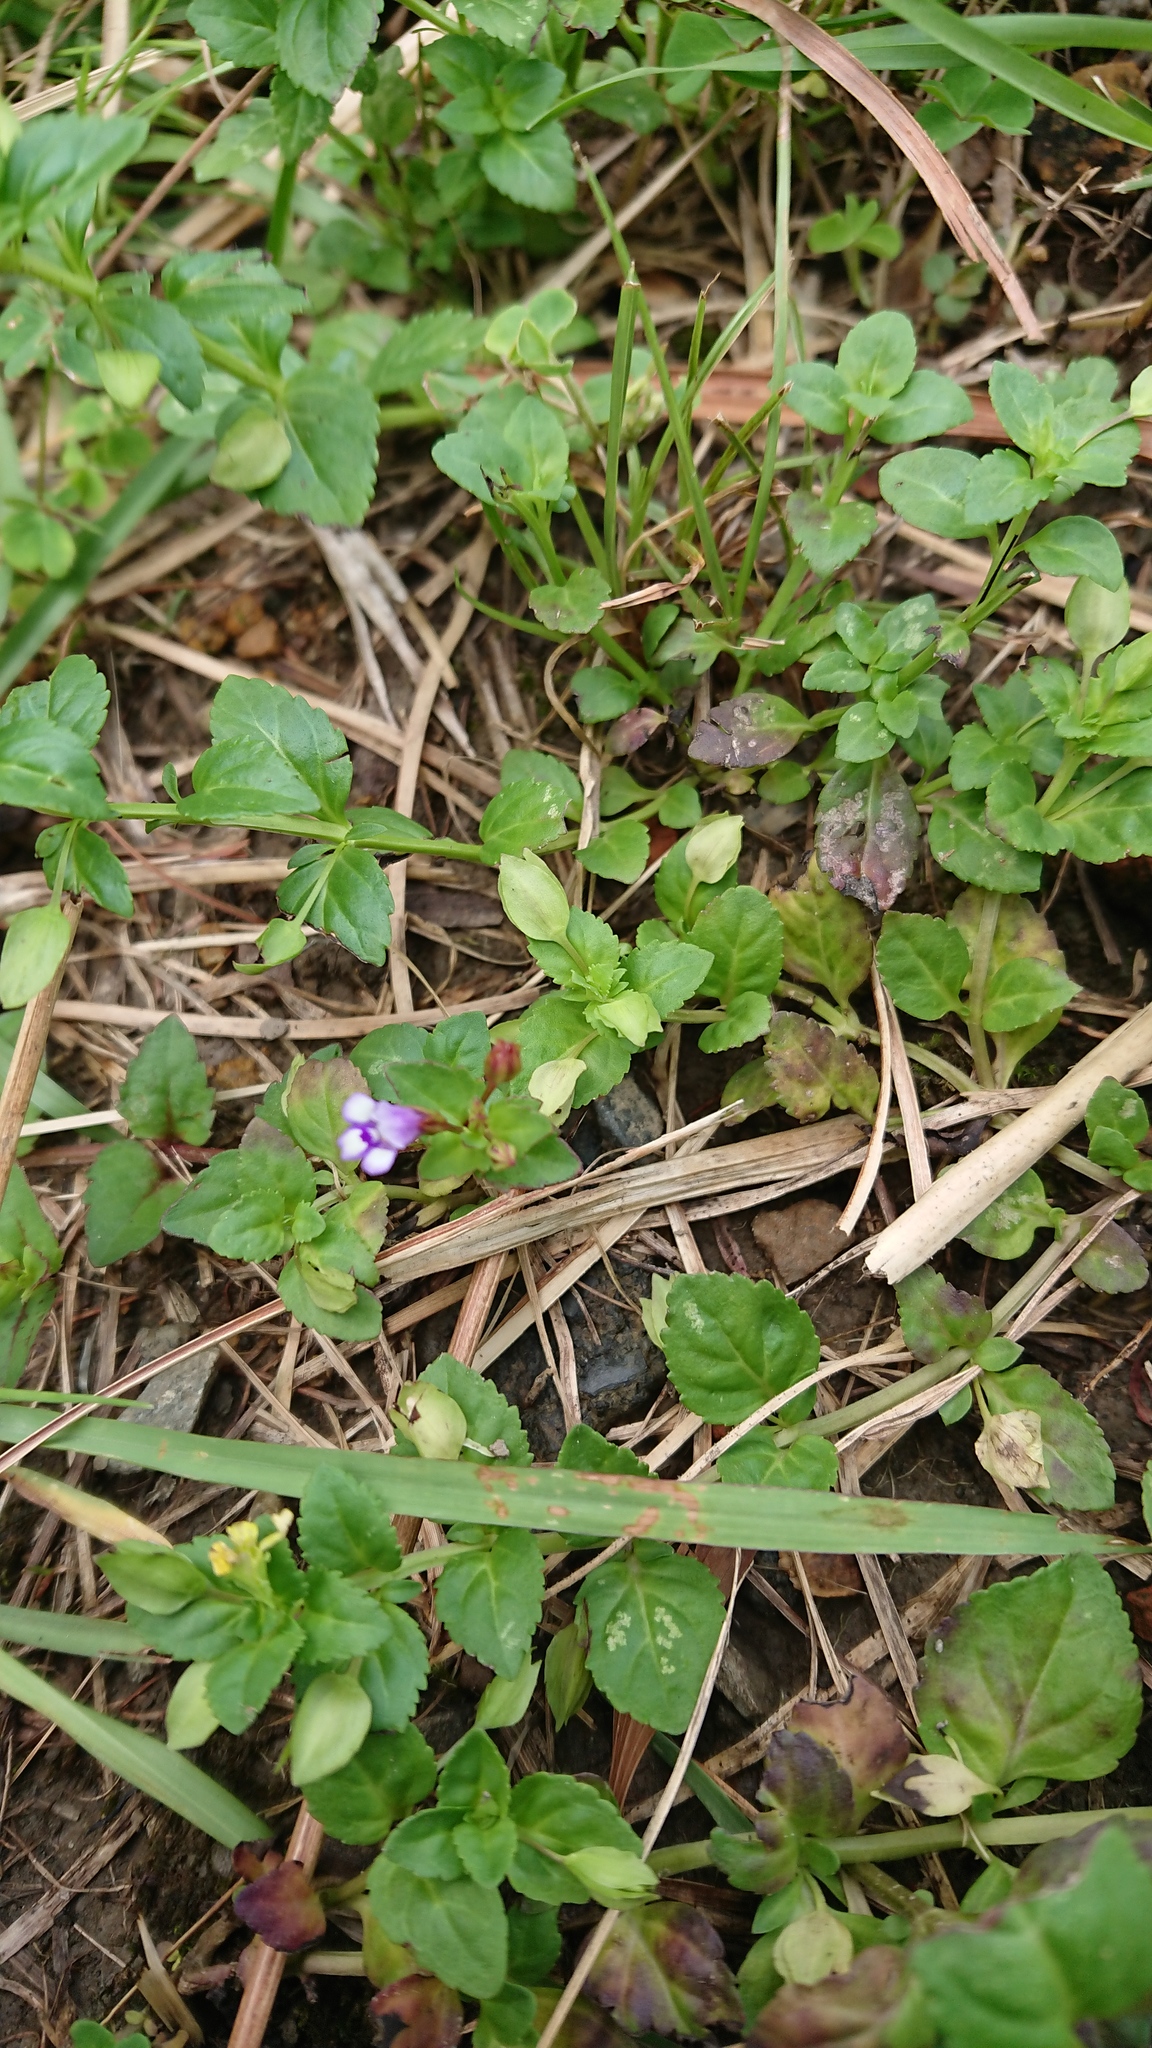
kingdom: Plantae
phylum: Tracheophyta
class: Magnoliopsida
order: Lamiales
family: Linderniaceae
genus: Torenia
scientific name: Torenia crustacea
